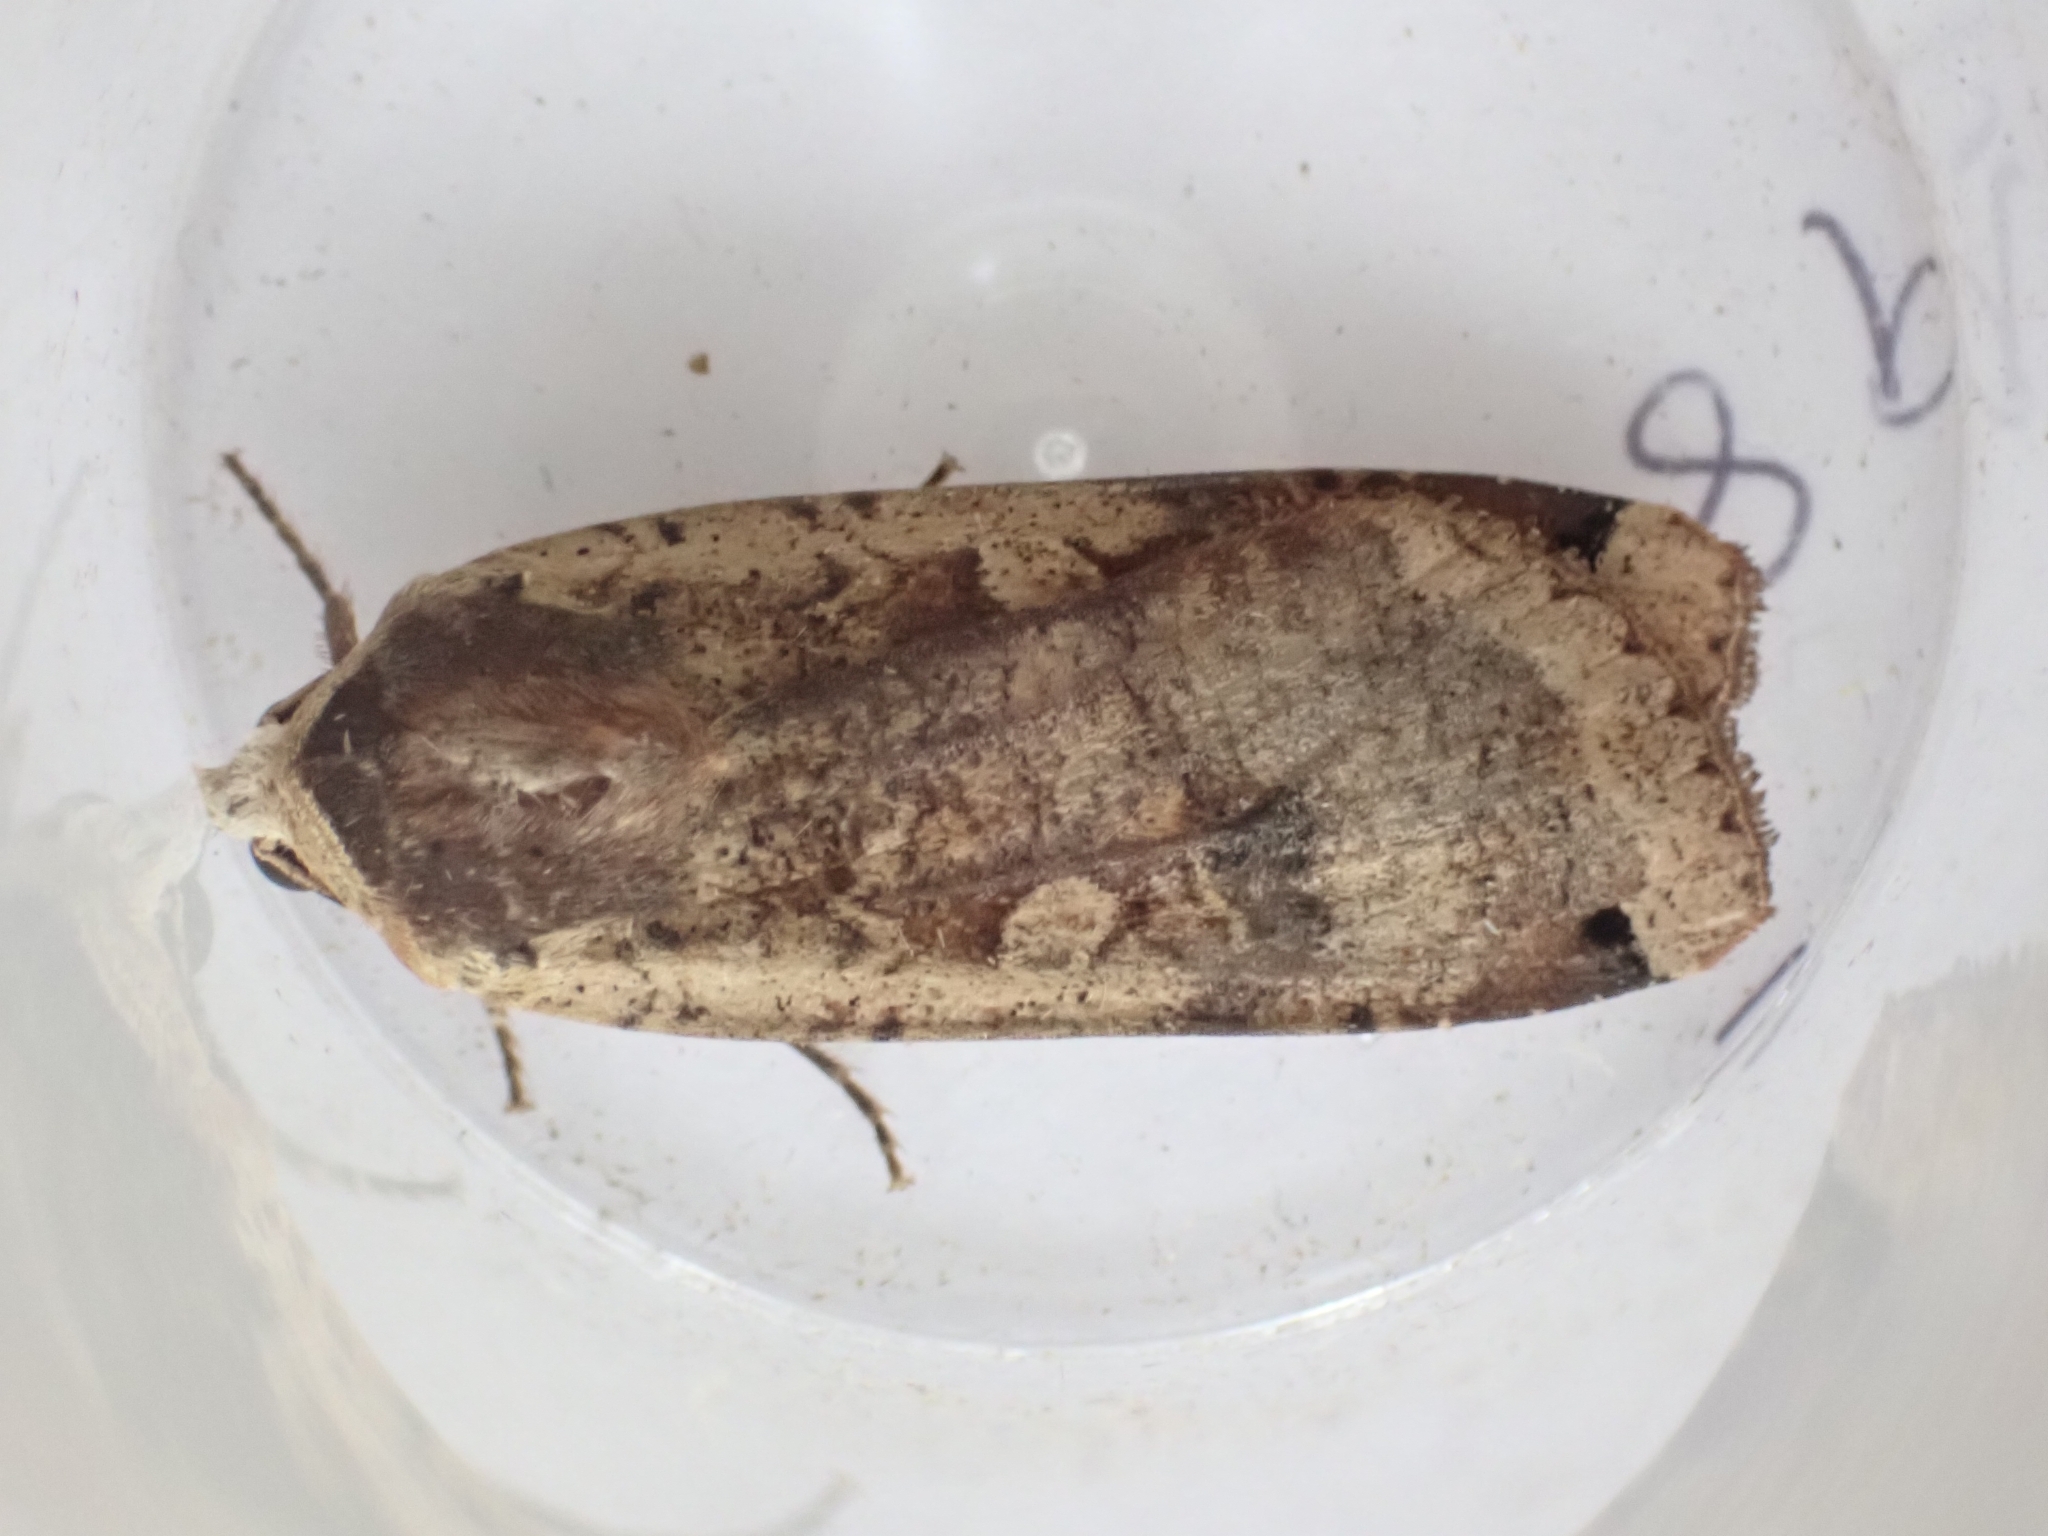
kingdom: Animalia
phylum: Arthropoda
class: Insecta
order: Lepidoptera
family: Noctuidae
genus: Noctua
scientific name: Noctua pronuba
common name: Large yellow underwing
